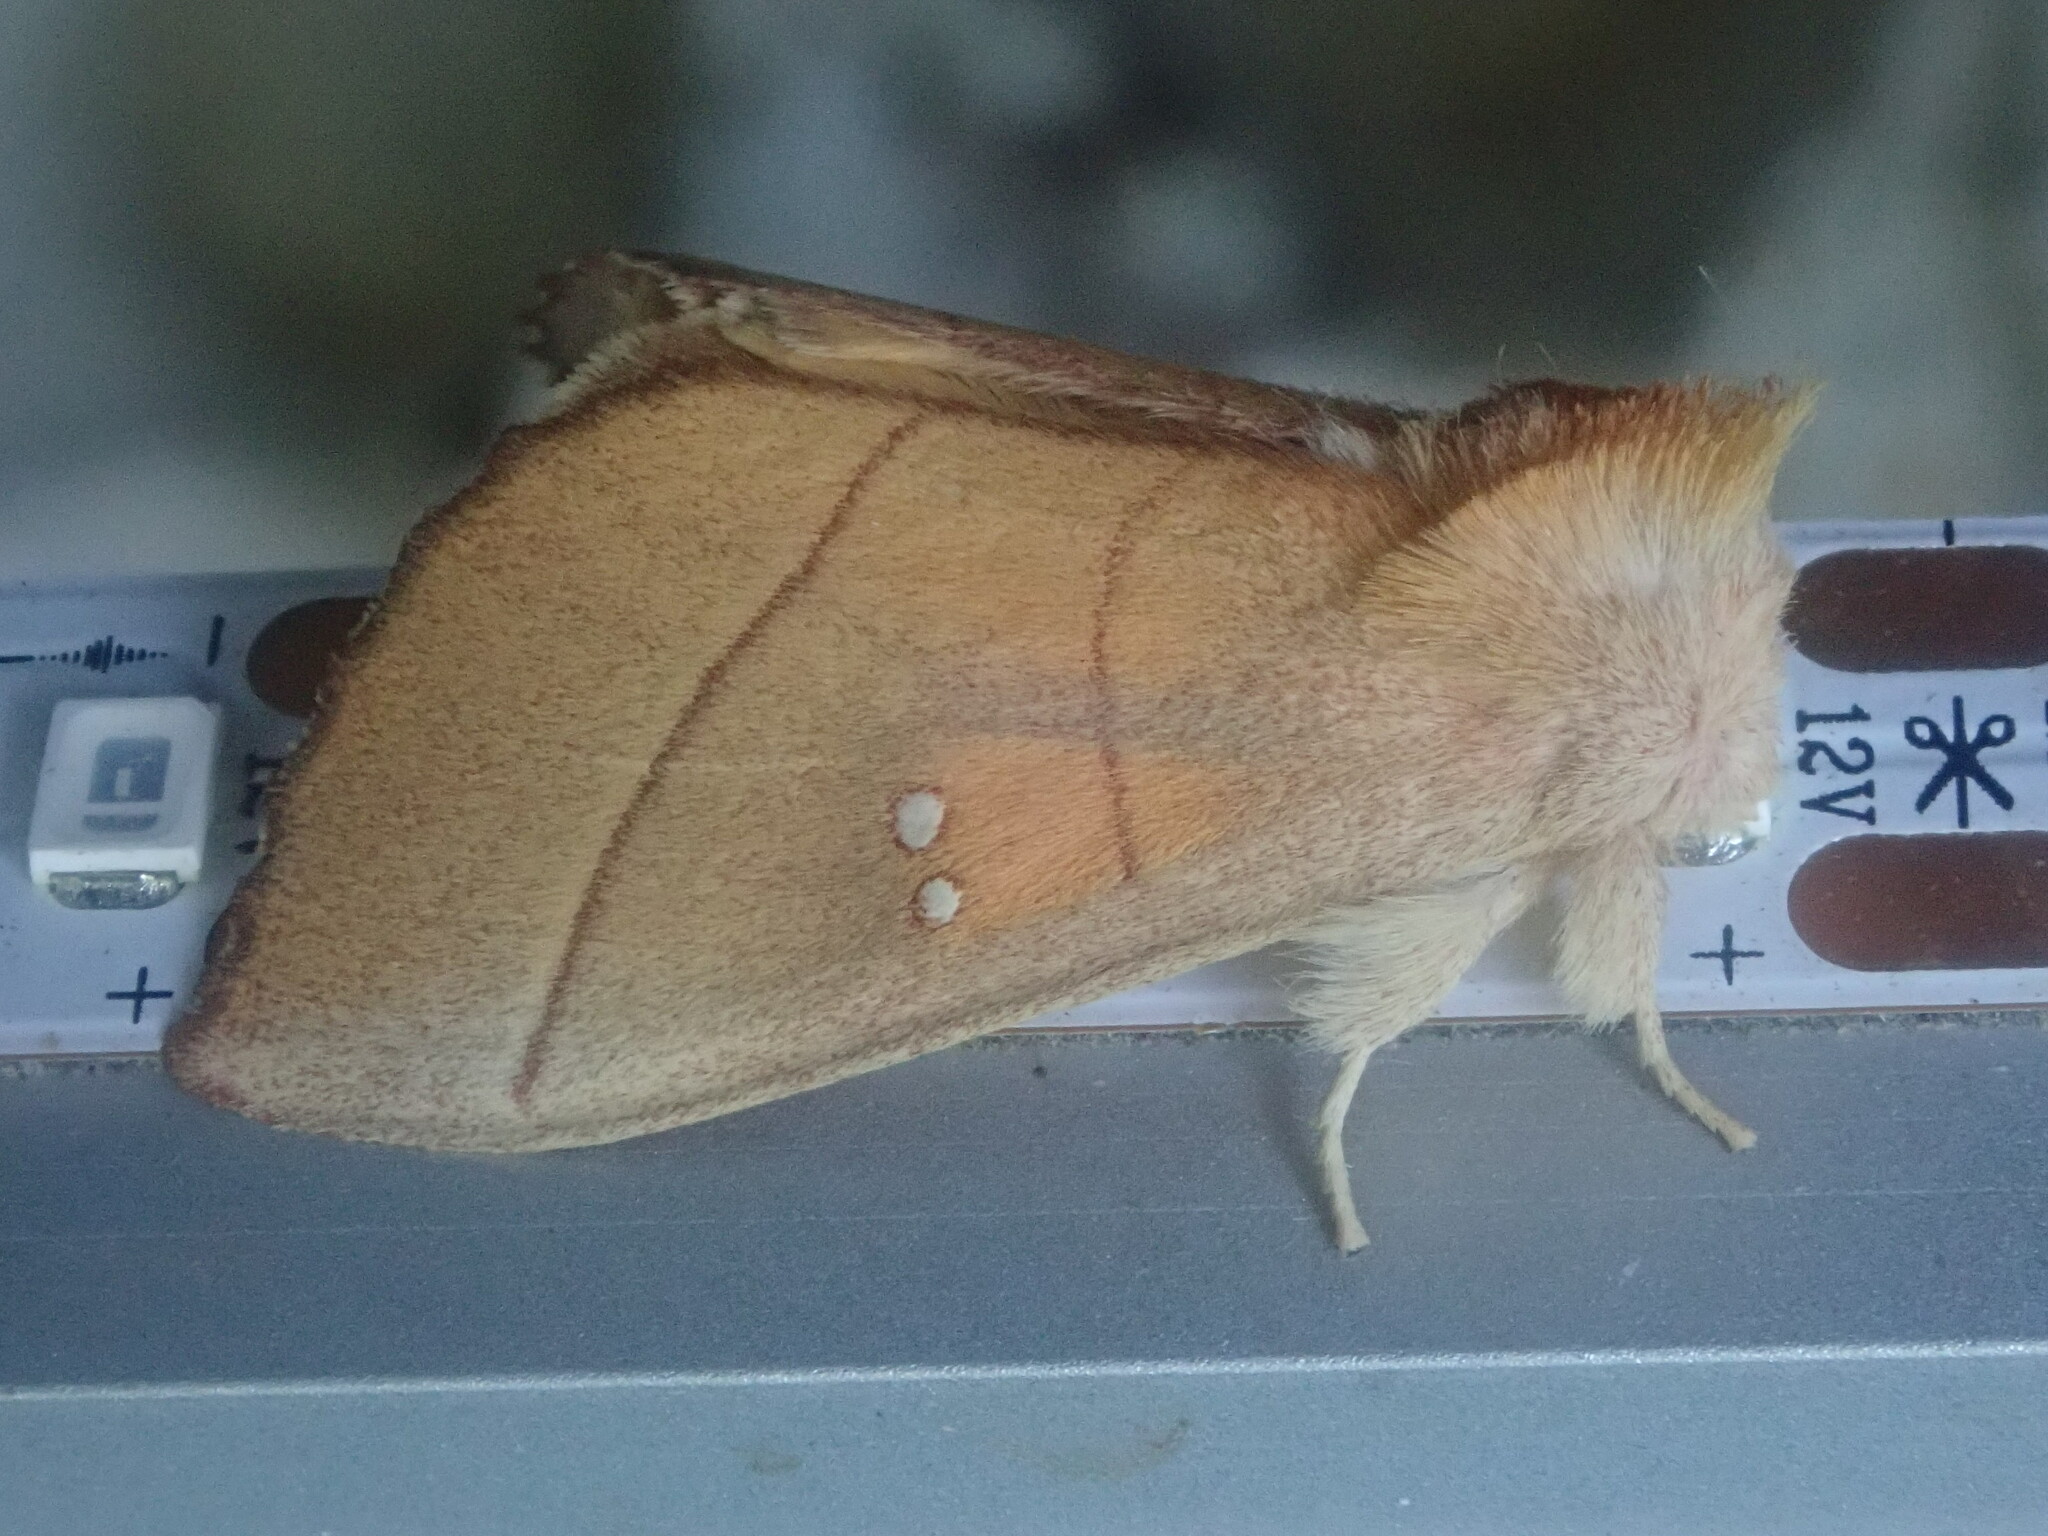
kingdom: Animalia
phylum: Arthropoda
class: Insecta
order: Lepidoptera
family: Notodontidae
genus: Nadata
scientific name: Nadata gibbosa
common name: White-dotted prominent
